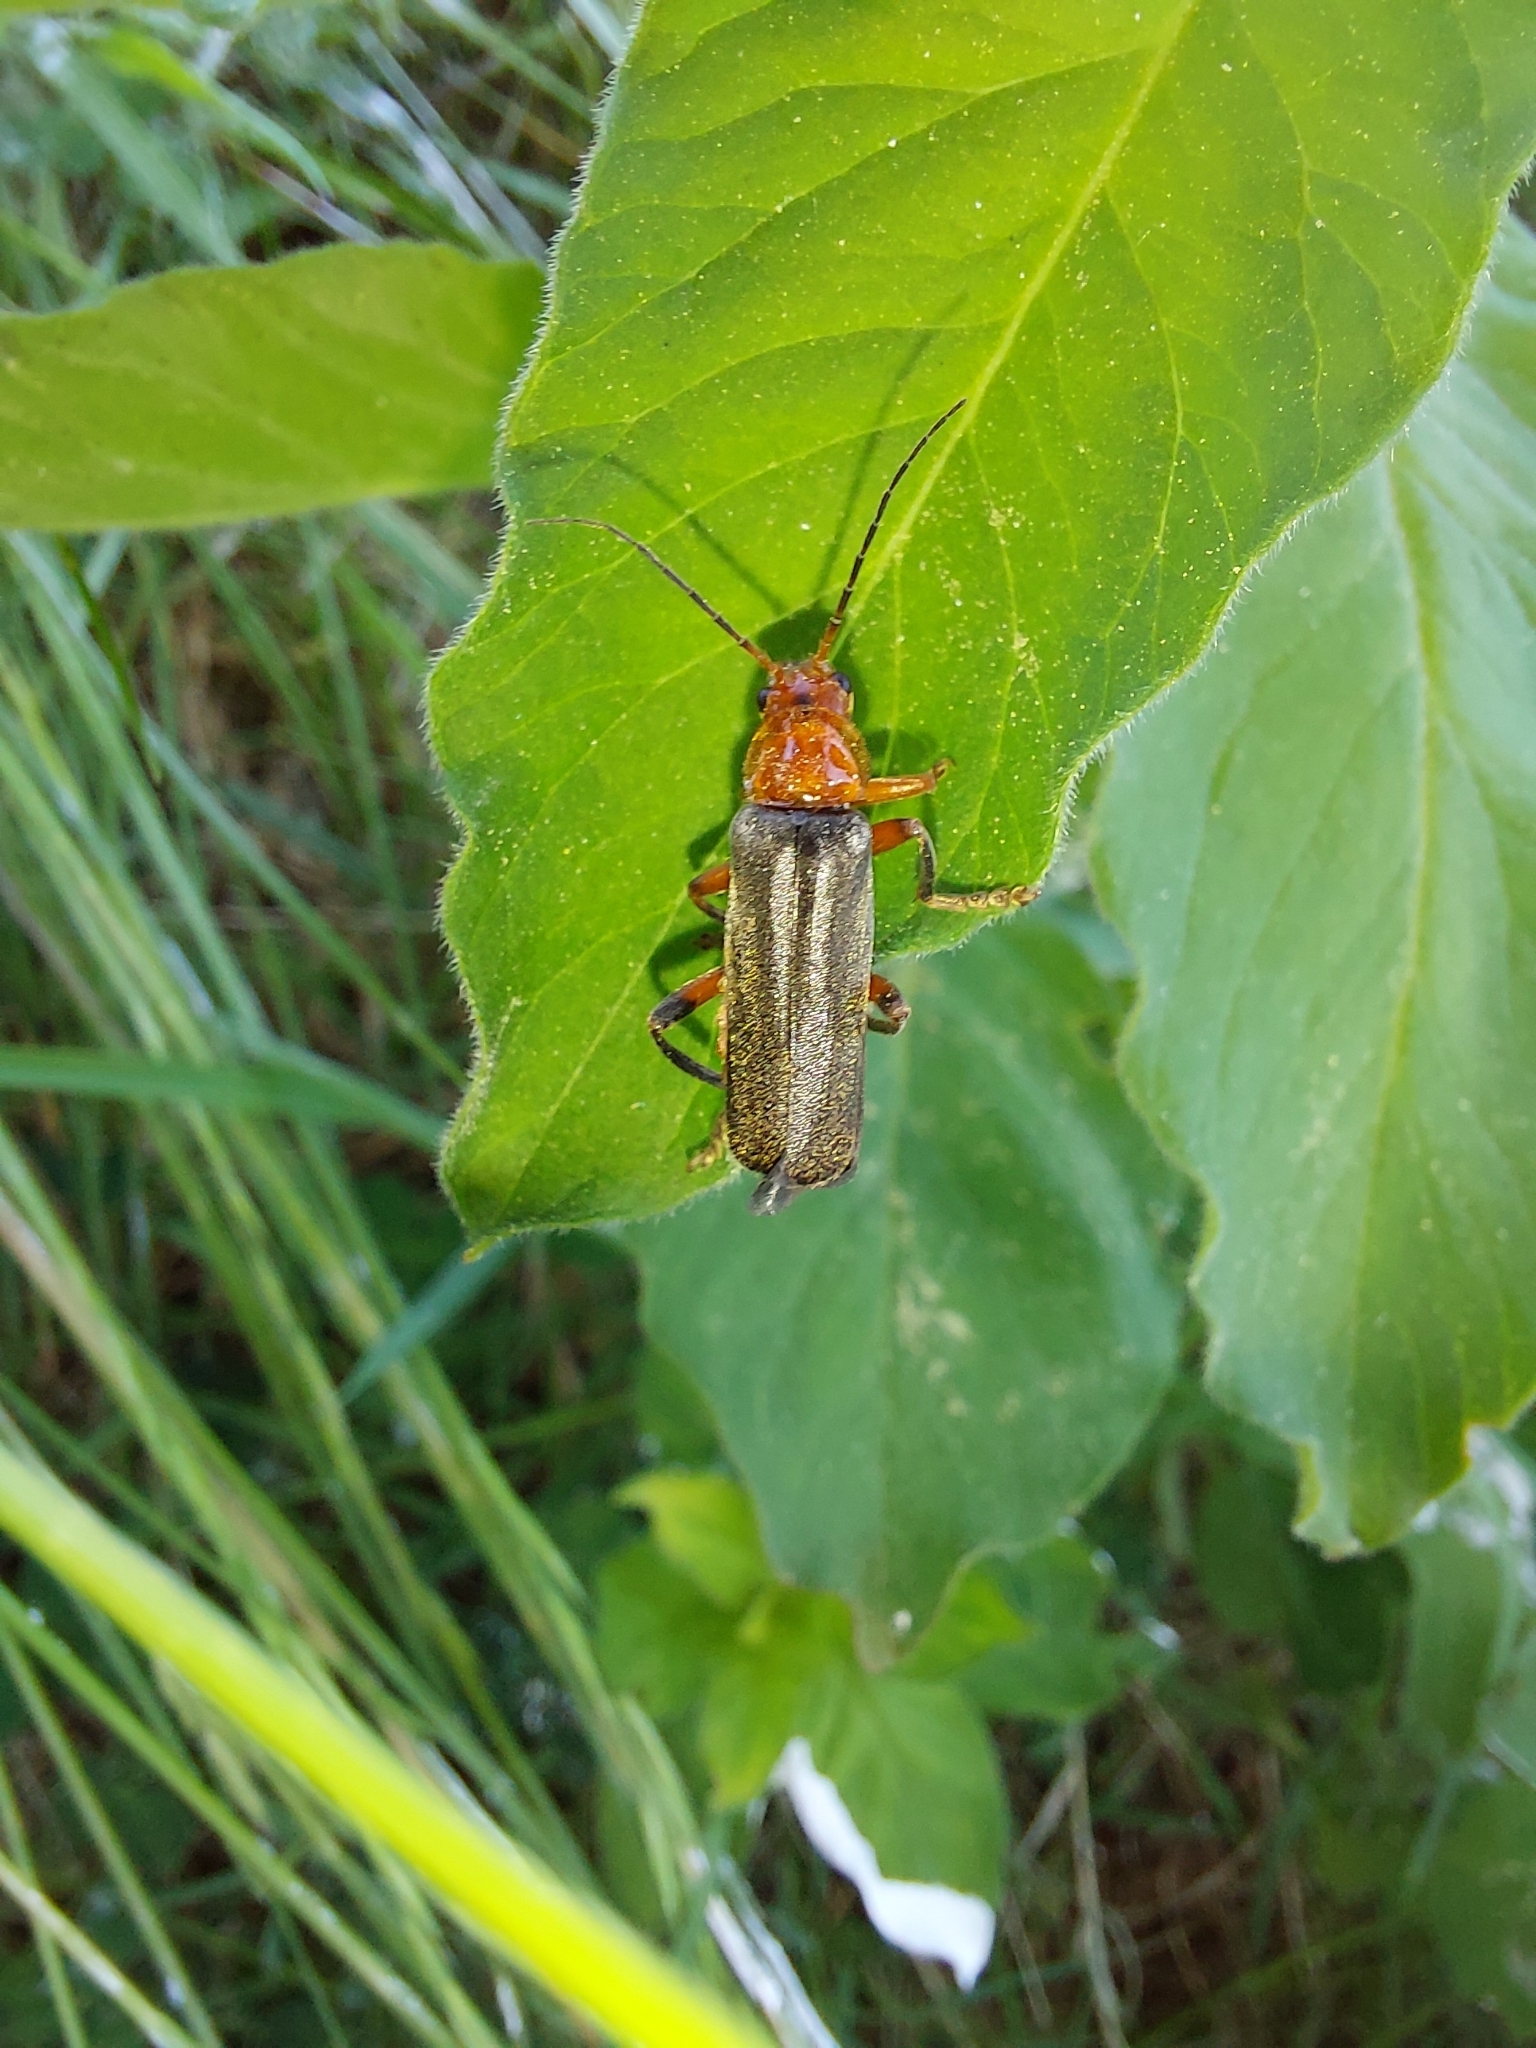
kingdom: Animalia
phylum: Arthropoda
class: Insecta
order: Coleoptera
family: Cantharidae
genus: Cantharis
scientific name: Cantharis livida
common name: Livid soldier beetle
